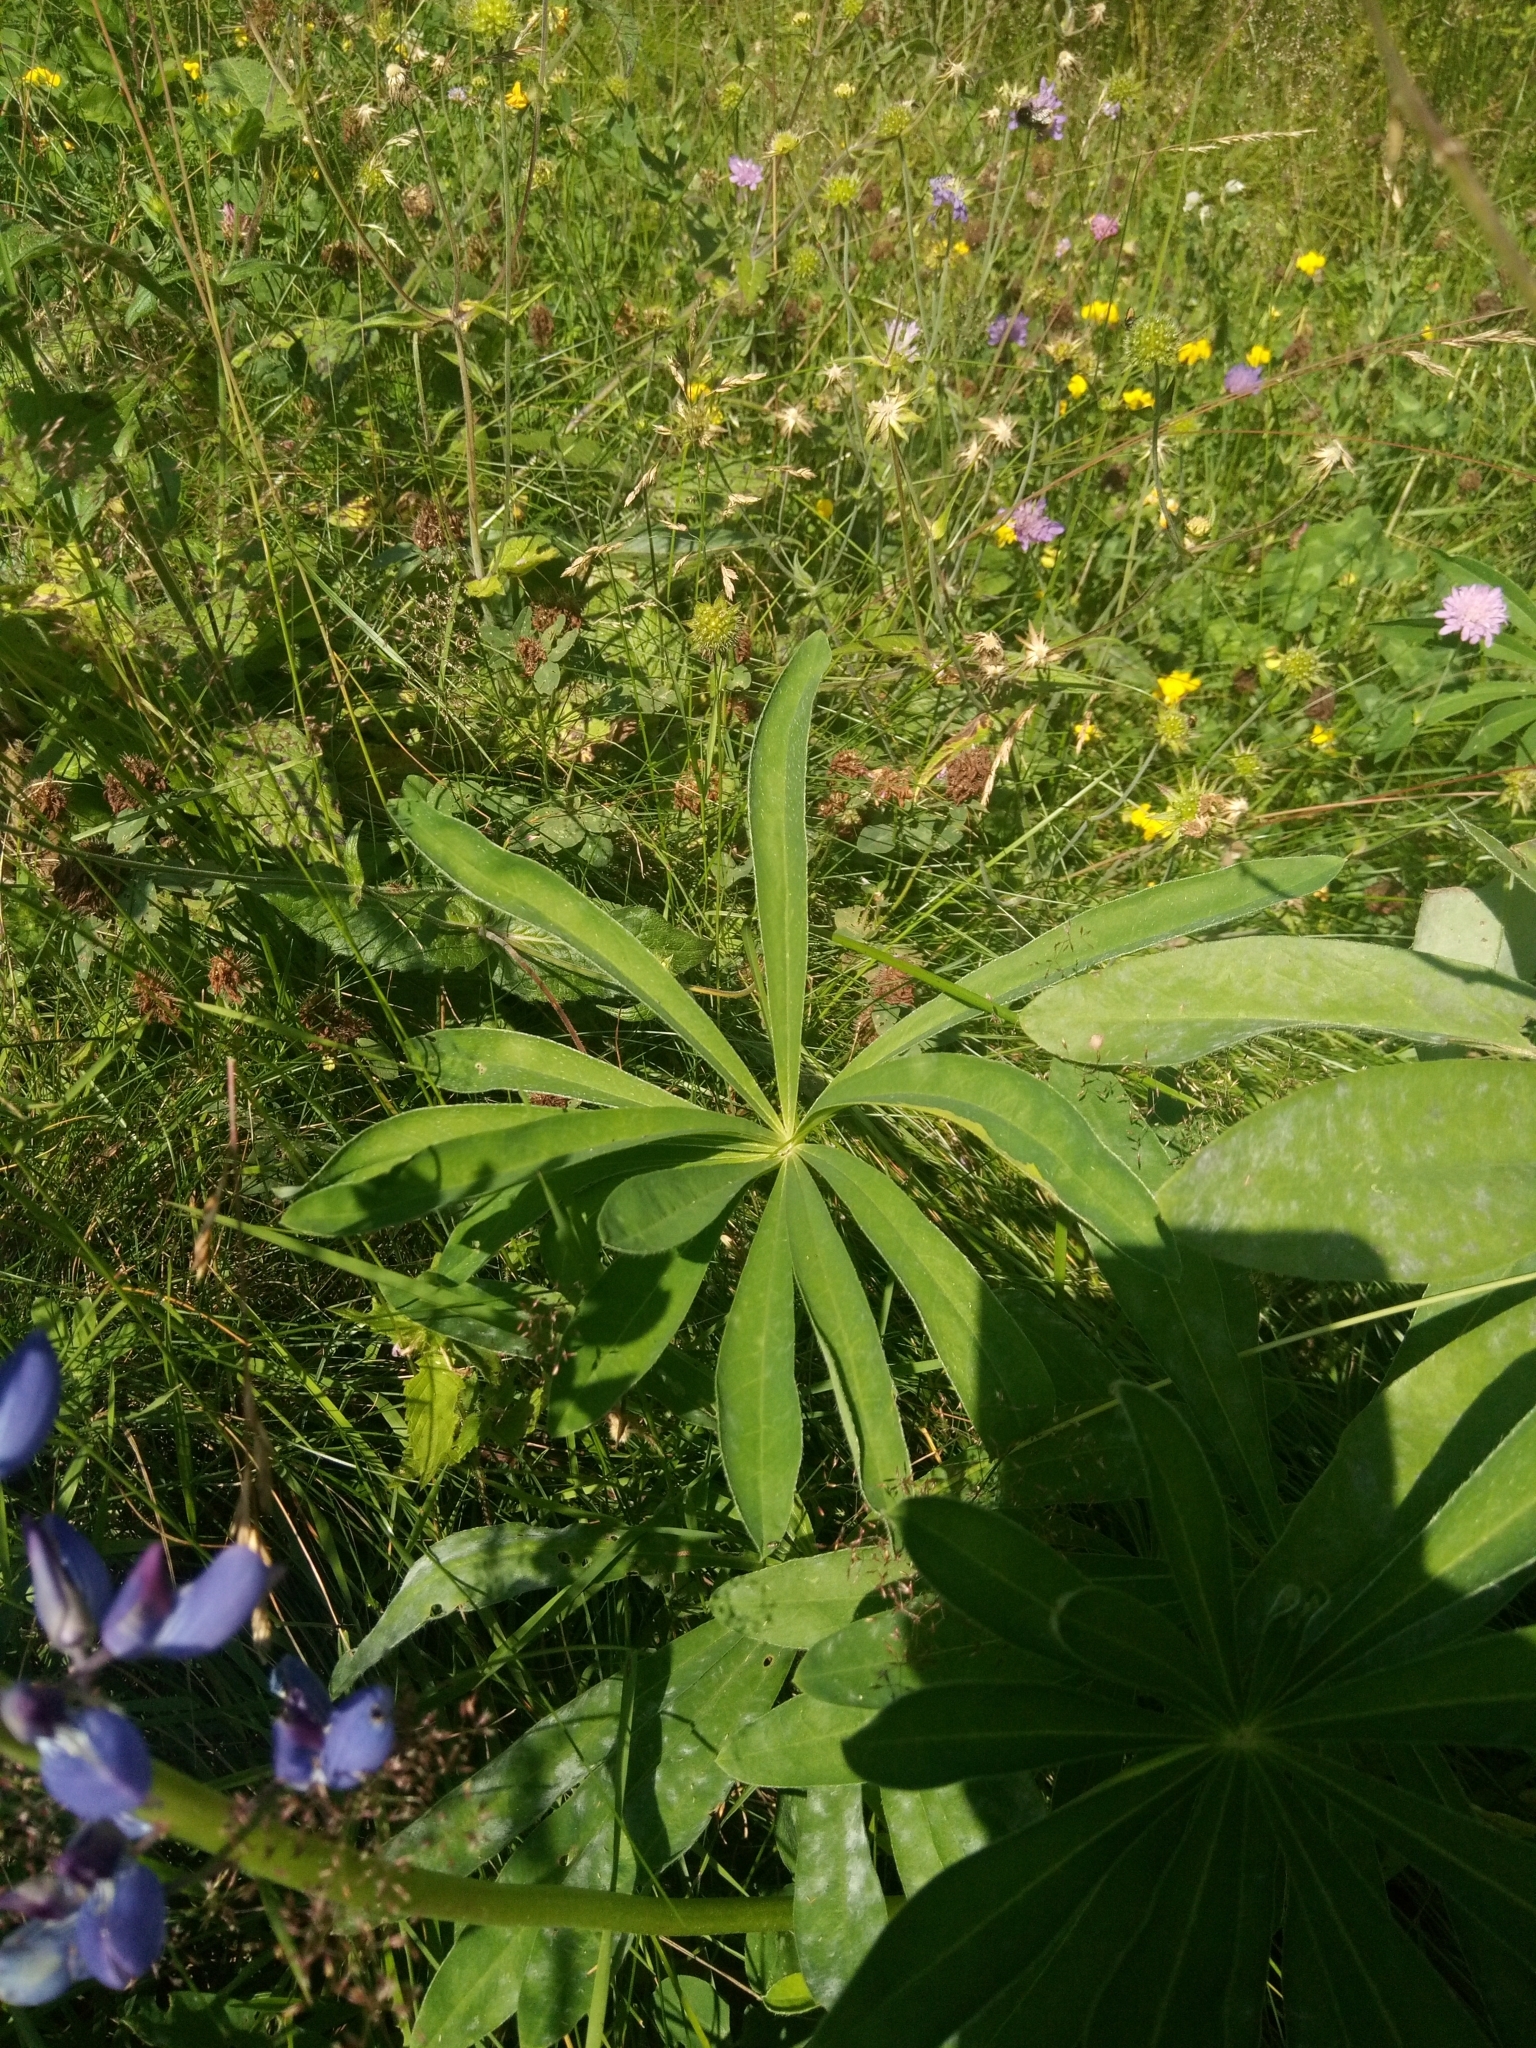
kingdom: Plantae
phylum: Tracheophyta
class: Magnoliopsida
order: Fabales
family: Fabaceae
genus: Lupinus
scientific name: Lupinus polyphyllus
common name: Garden lupin
